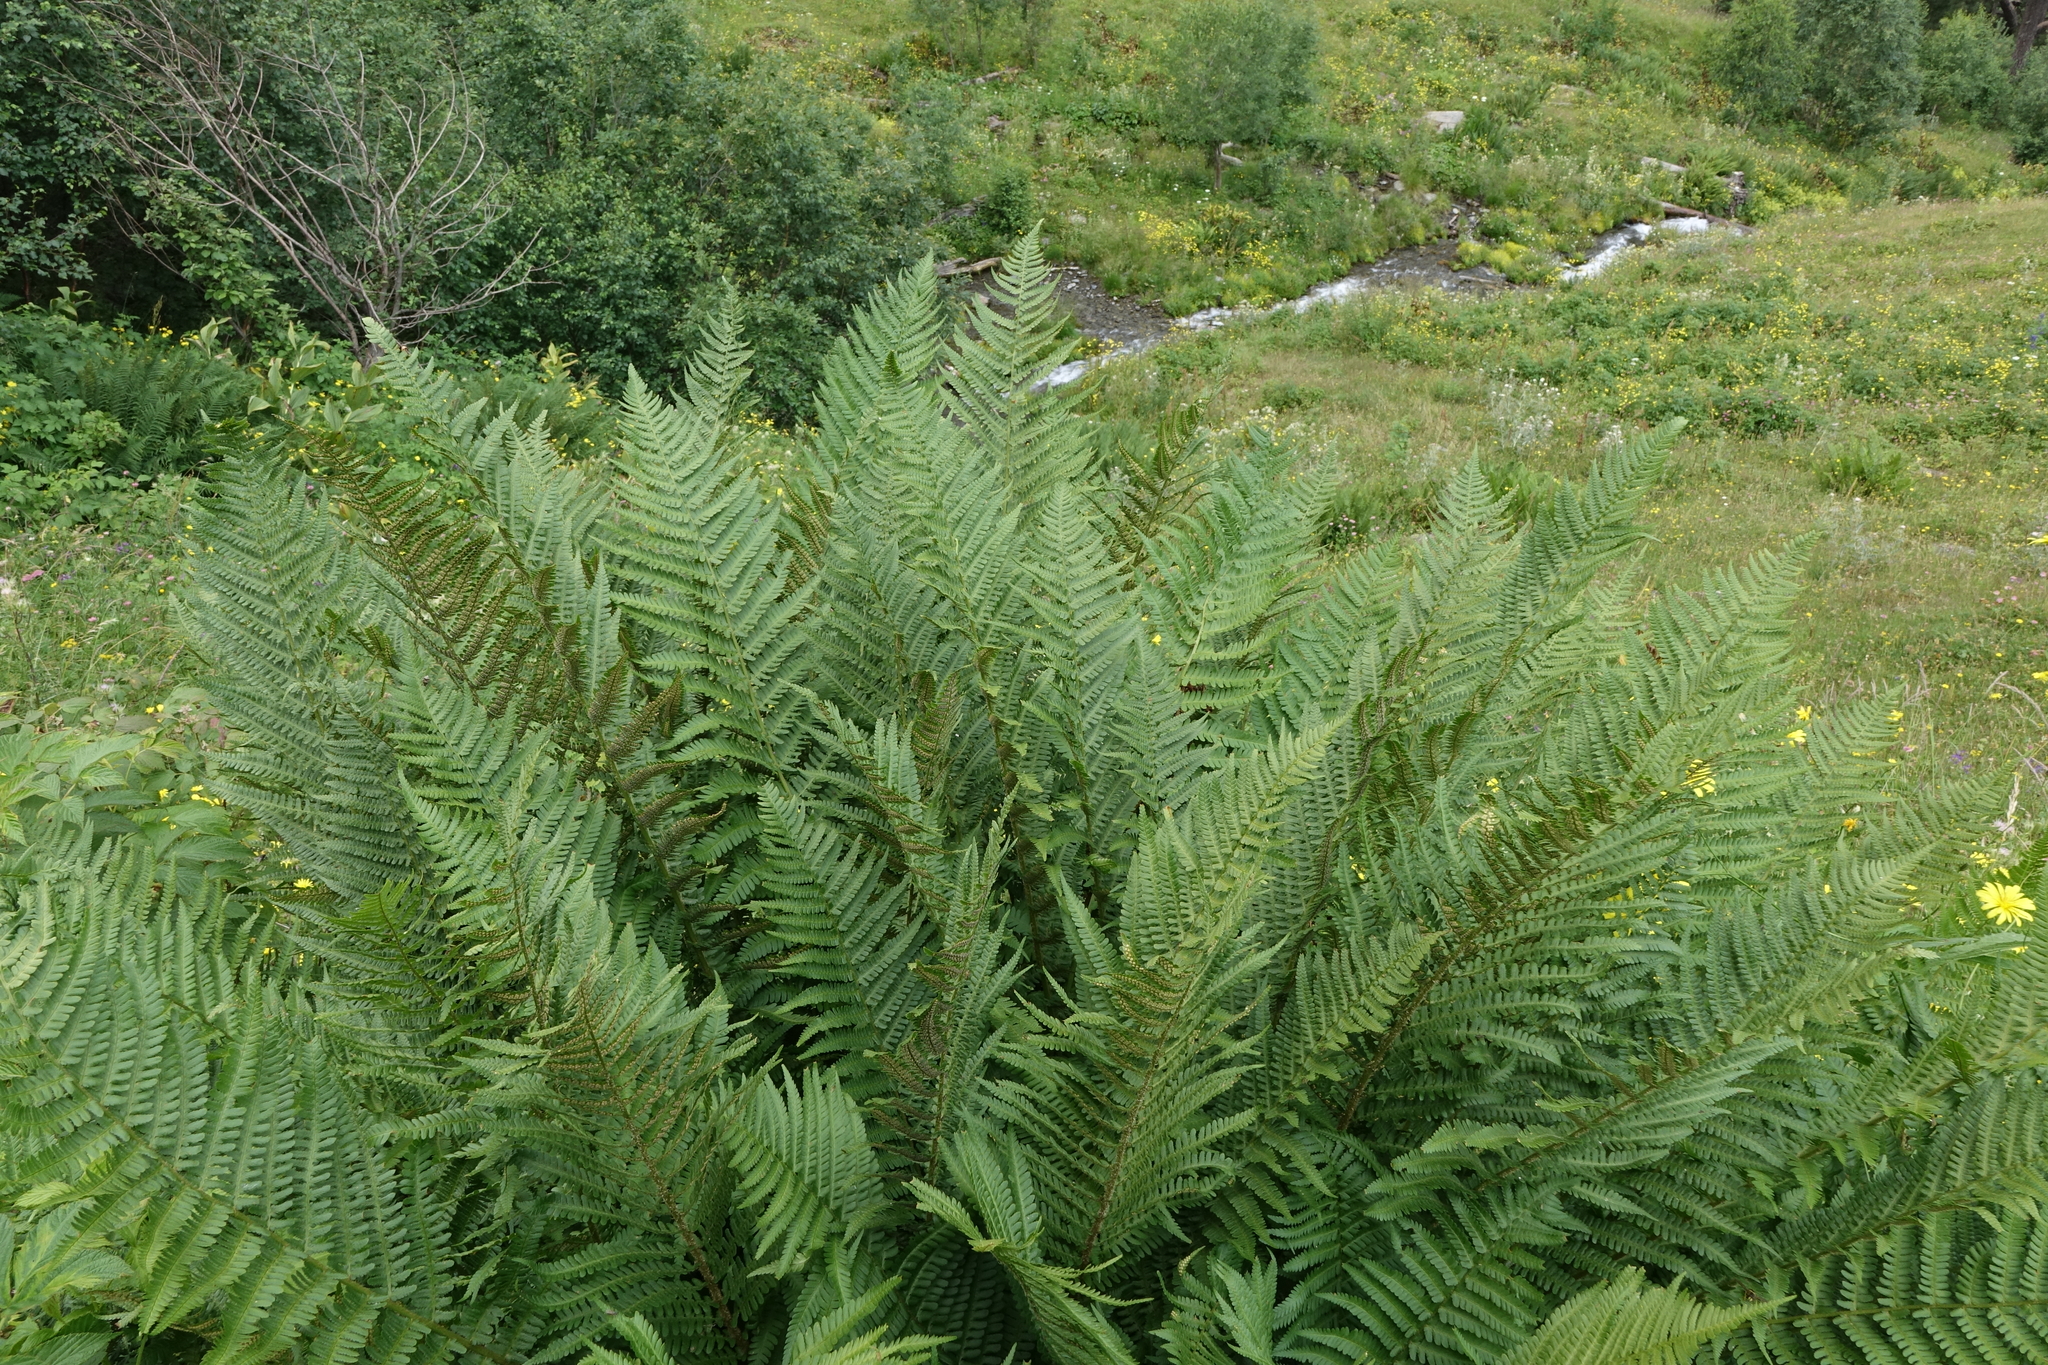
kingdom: Plantae
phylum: Tracheophyta
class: Polypodiopsida
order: Polypodiales
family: Dryopteridaceae
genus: Dryopteris
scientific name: Dryopteris filix-mas
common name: Male fern
